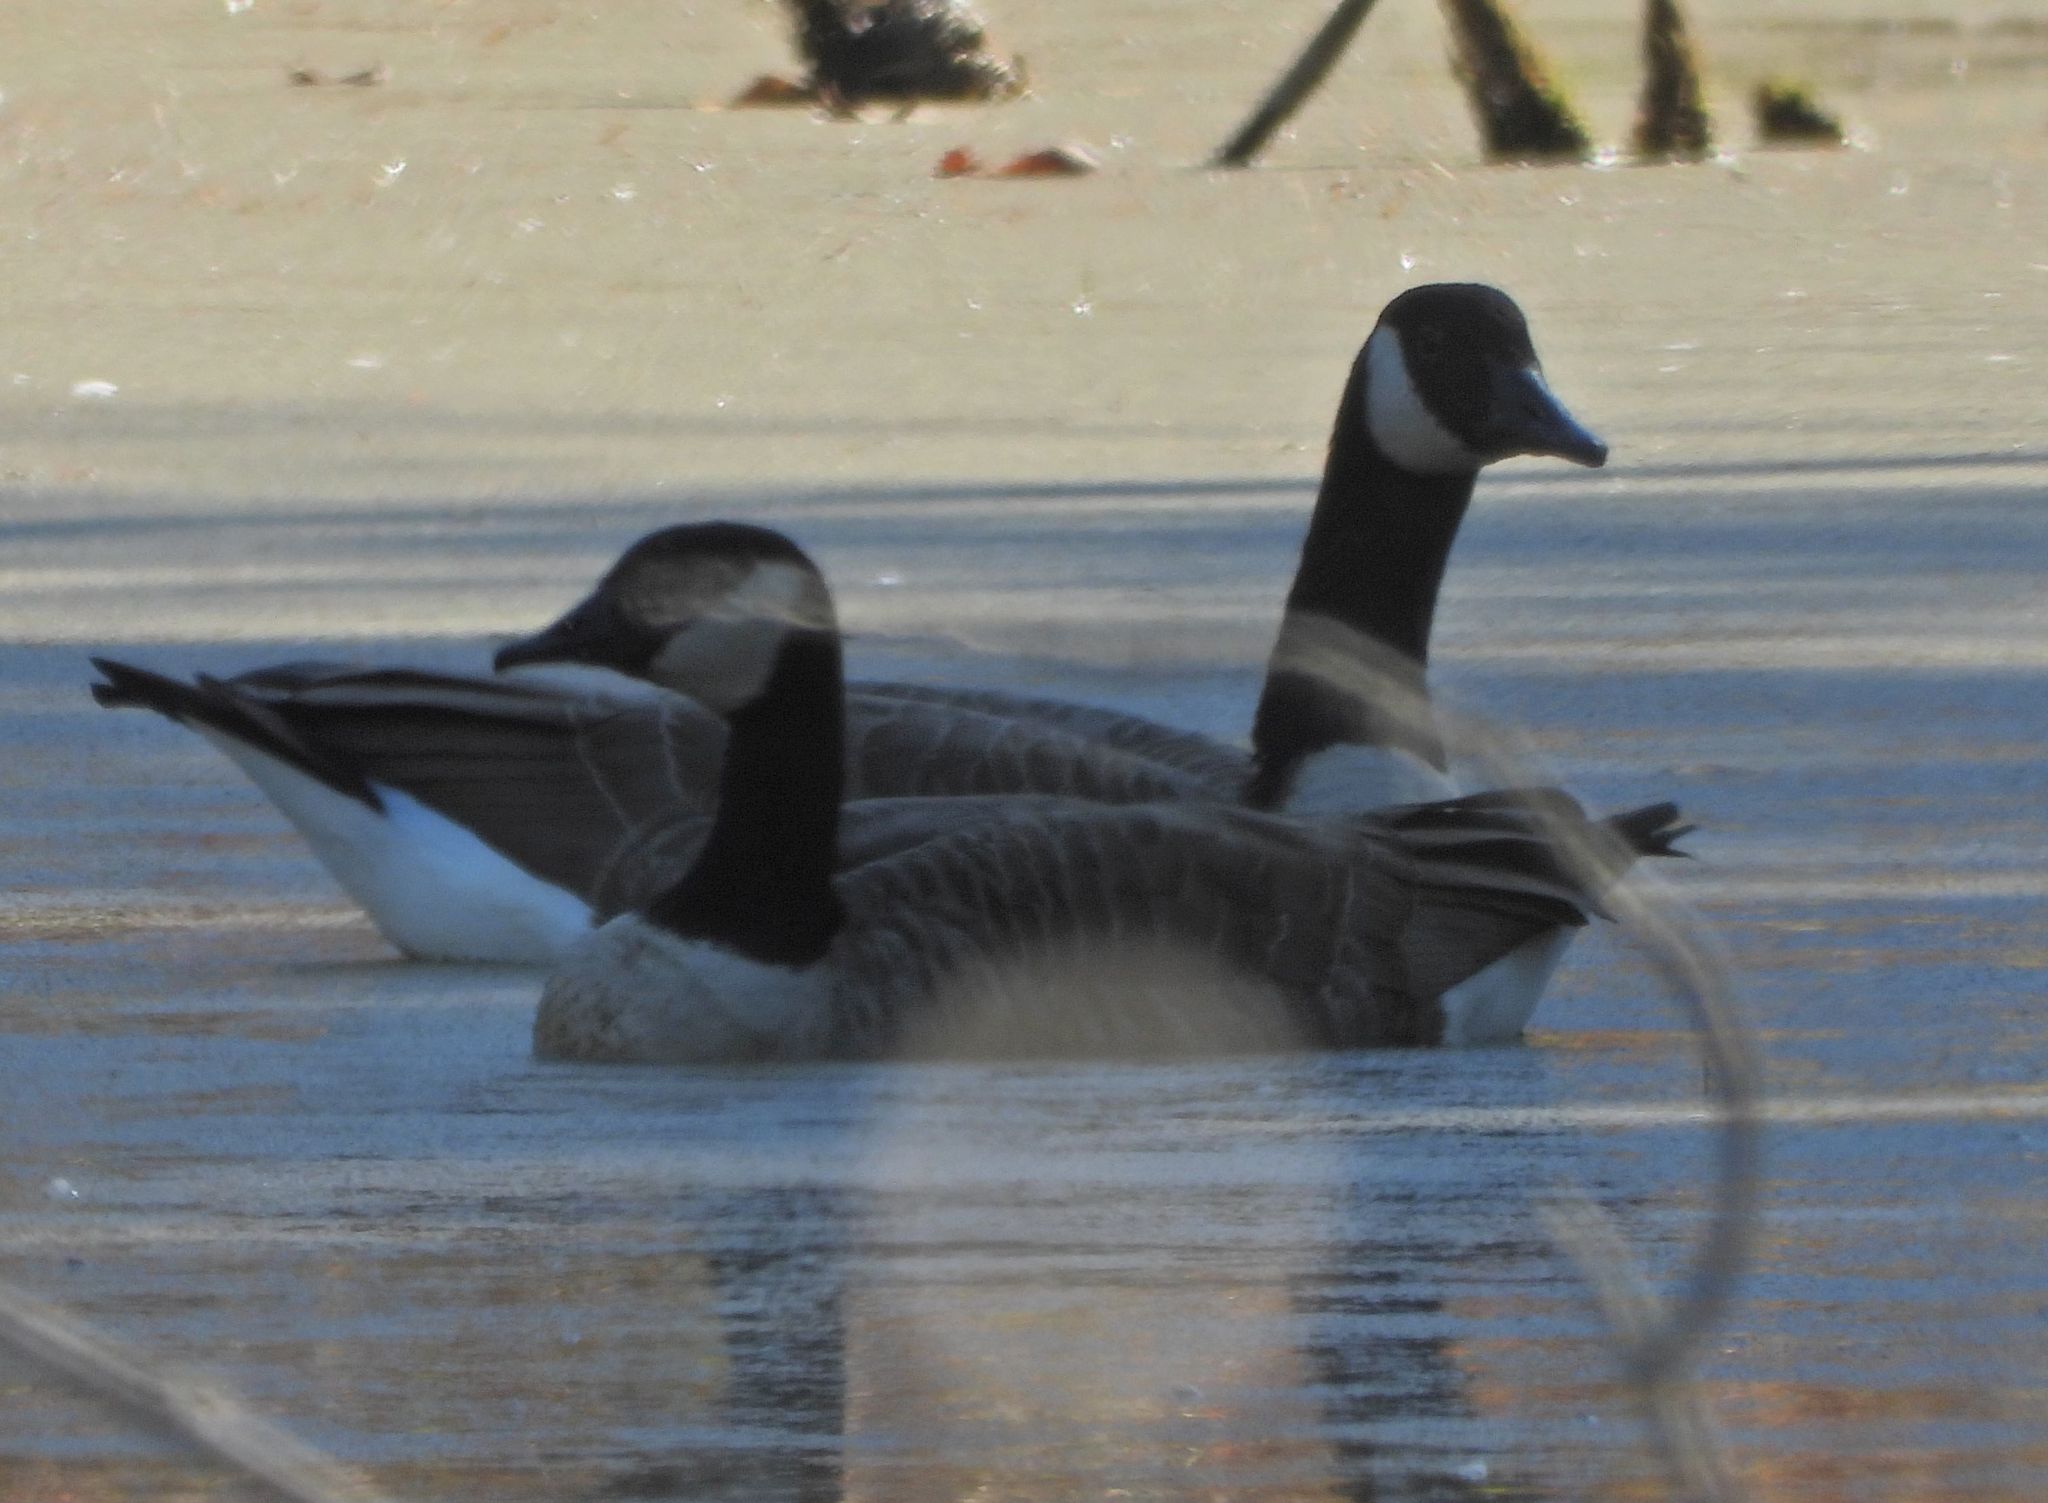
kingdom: Animalia
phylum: Chordata
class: Aves
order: Anseriformes
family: Anatidae
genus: Branta
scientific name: Branta canadensis
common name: Canada goose
